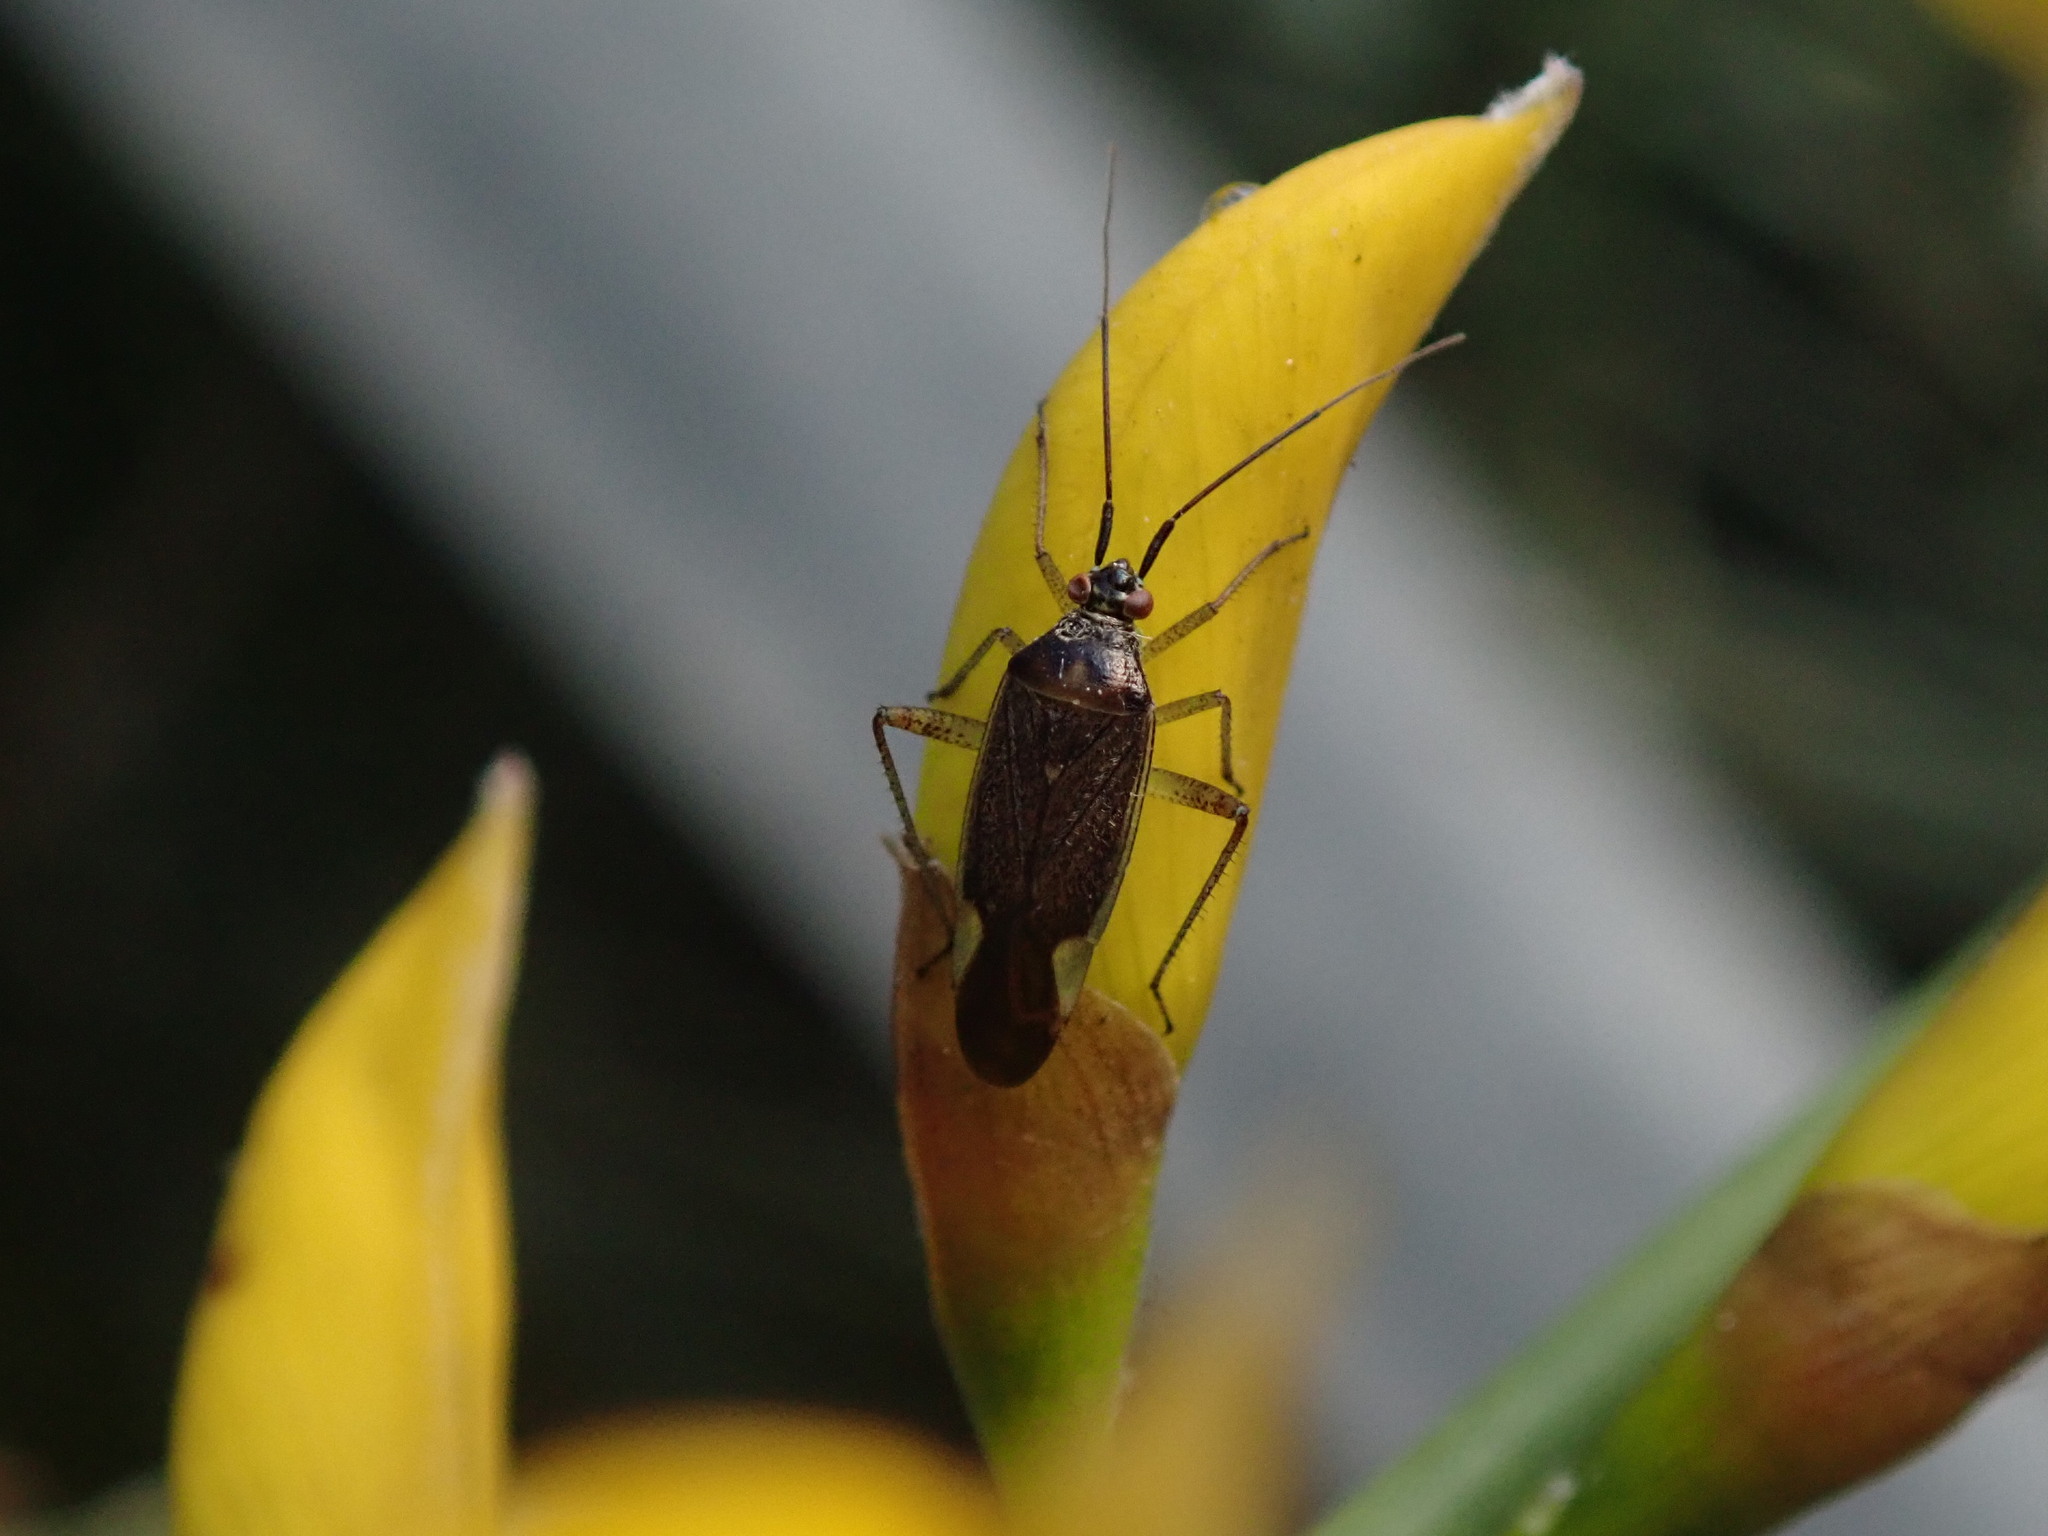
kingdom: Animalia
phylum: Arthropoda
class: Insecta
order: Hemiptera
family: Miridae
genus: Closterotomus
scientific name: Closterotomus trivialis
